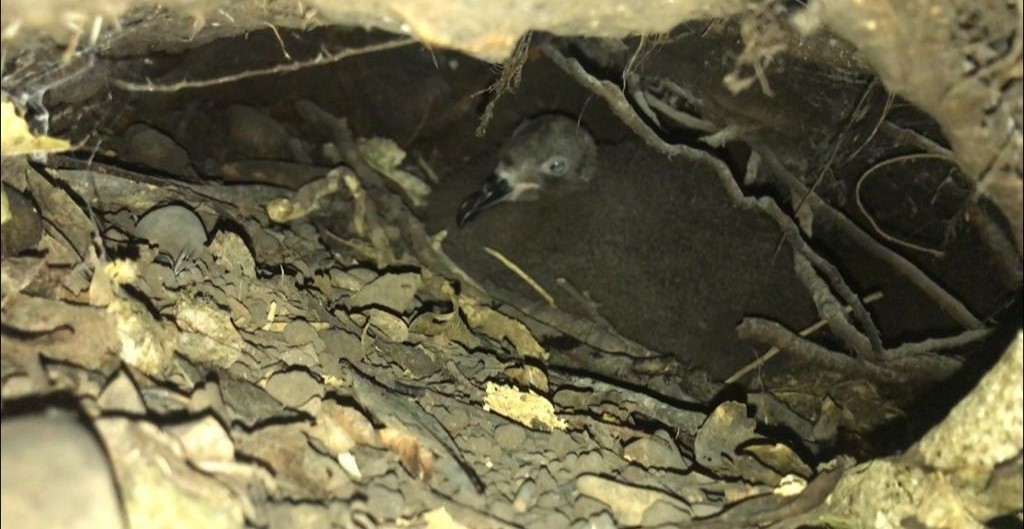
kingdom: Animalia
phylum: Chordata
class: Aves
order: Procellariiformes
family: Procellariidae
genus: Pterodroma
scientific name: Pterodroma macroptera
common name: Great-winged petrel
